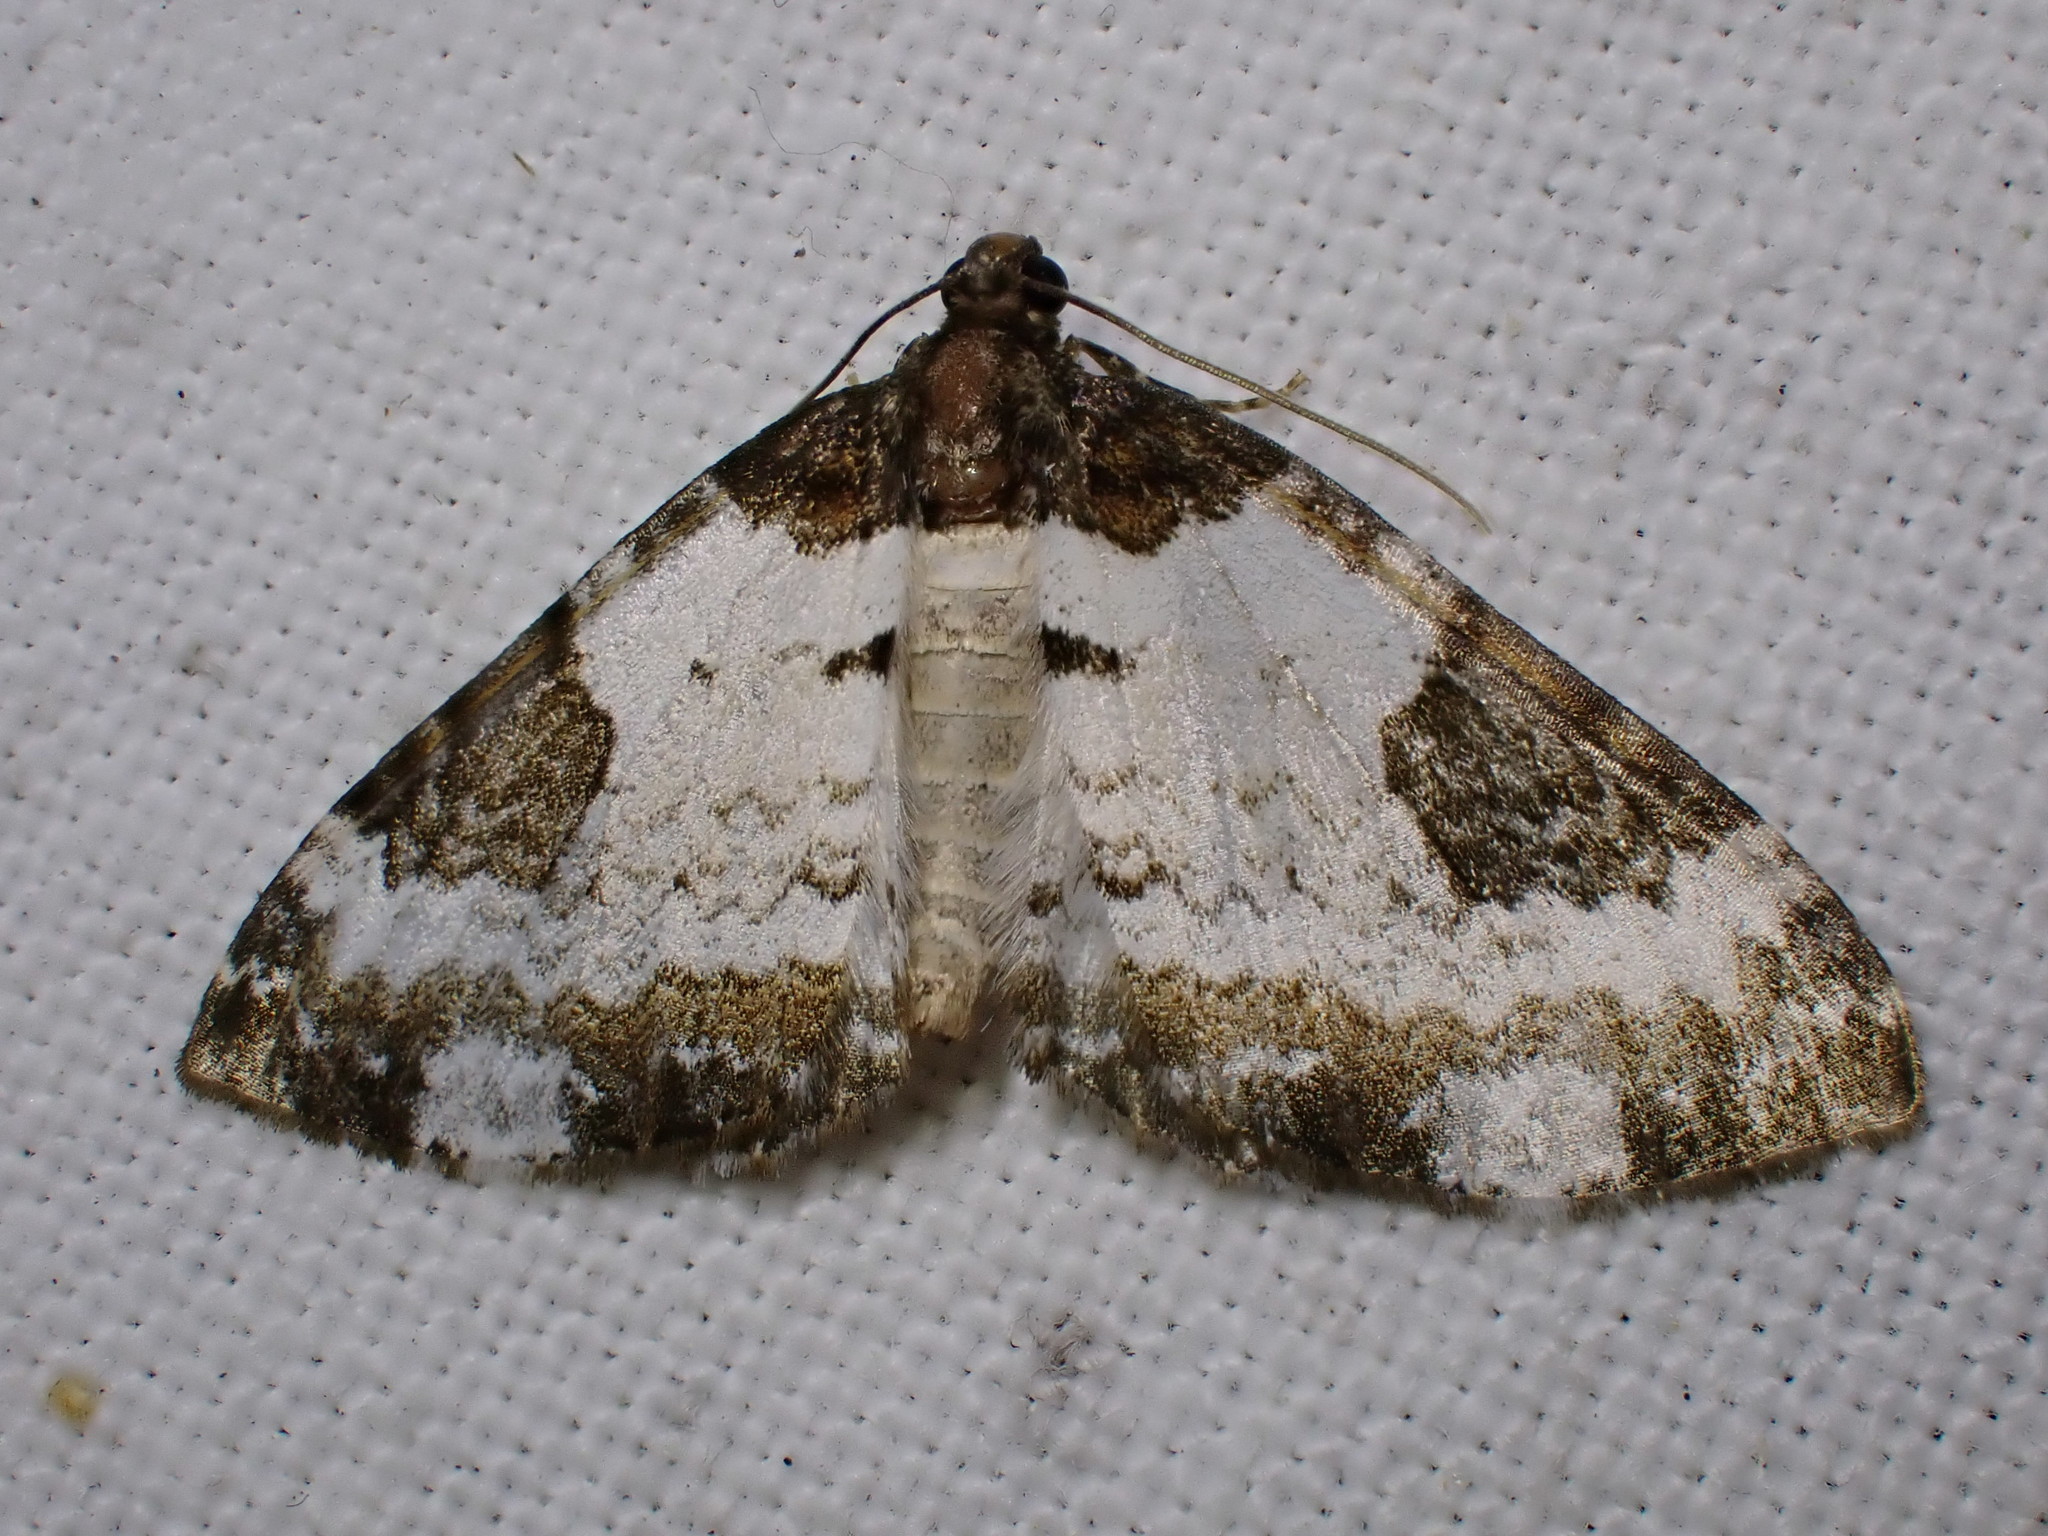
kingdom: Animalia
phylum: Arthropoda
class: Insecta
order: Lepidoptera
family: Geometridae
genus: Melanthia
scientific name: Melanthia procellata
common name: Pretty chalk carpet
